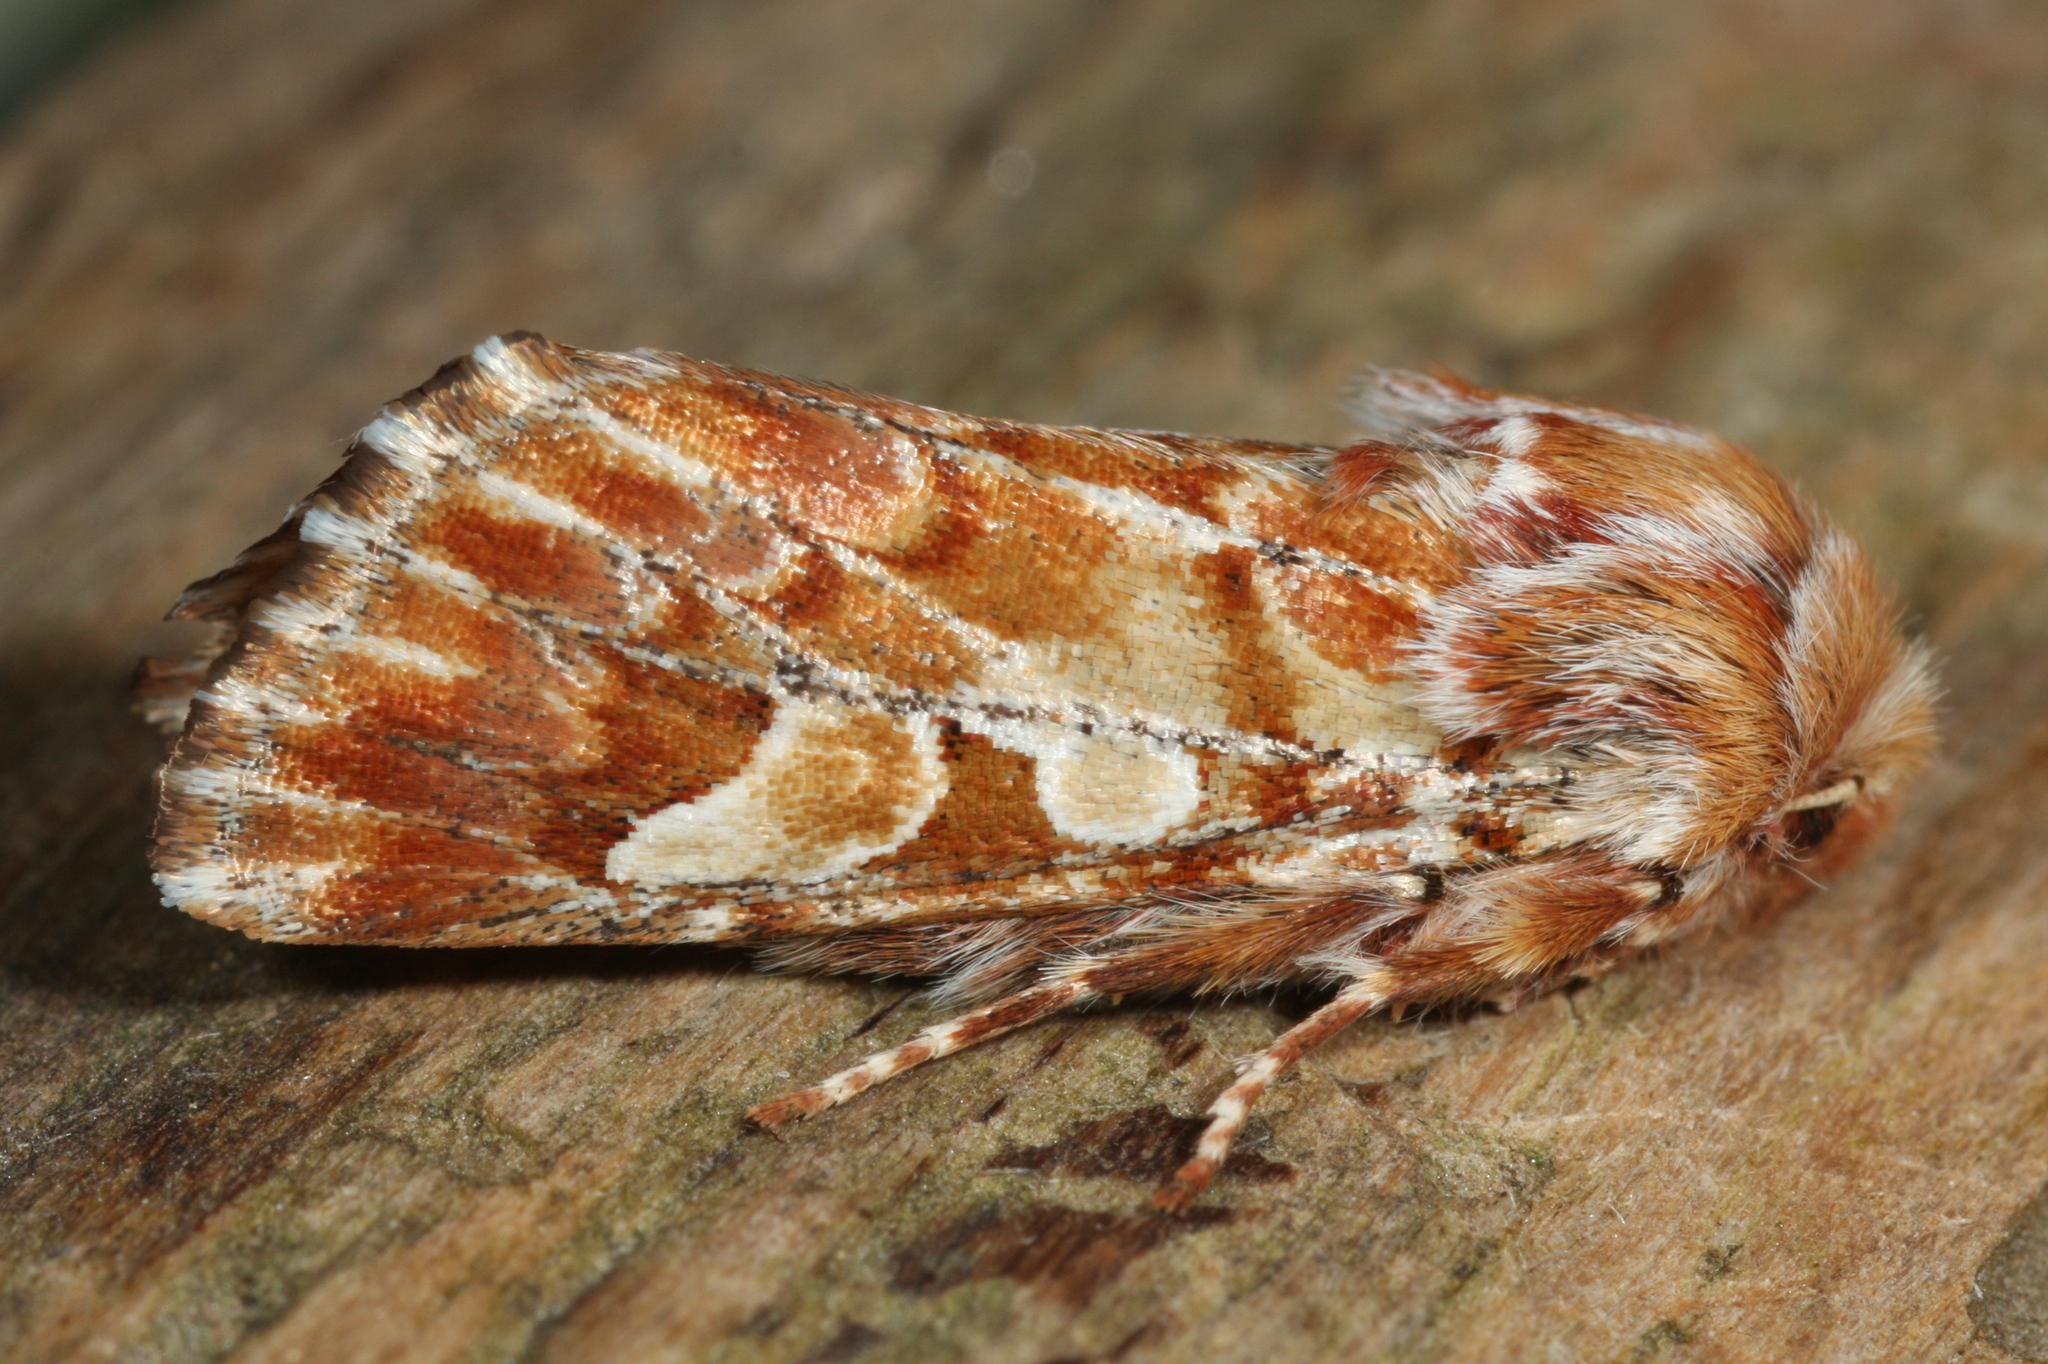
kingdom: Animalia
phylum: Arthropoda
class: Insecta
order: Lepidoptera
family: Noctuidae
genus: Panolis
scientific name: Panolis flammea
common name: Pine beauty
